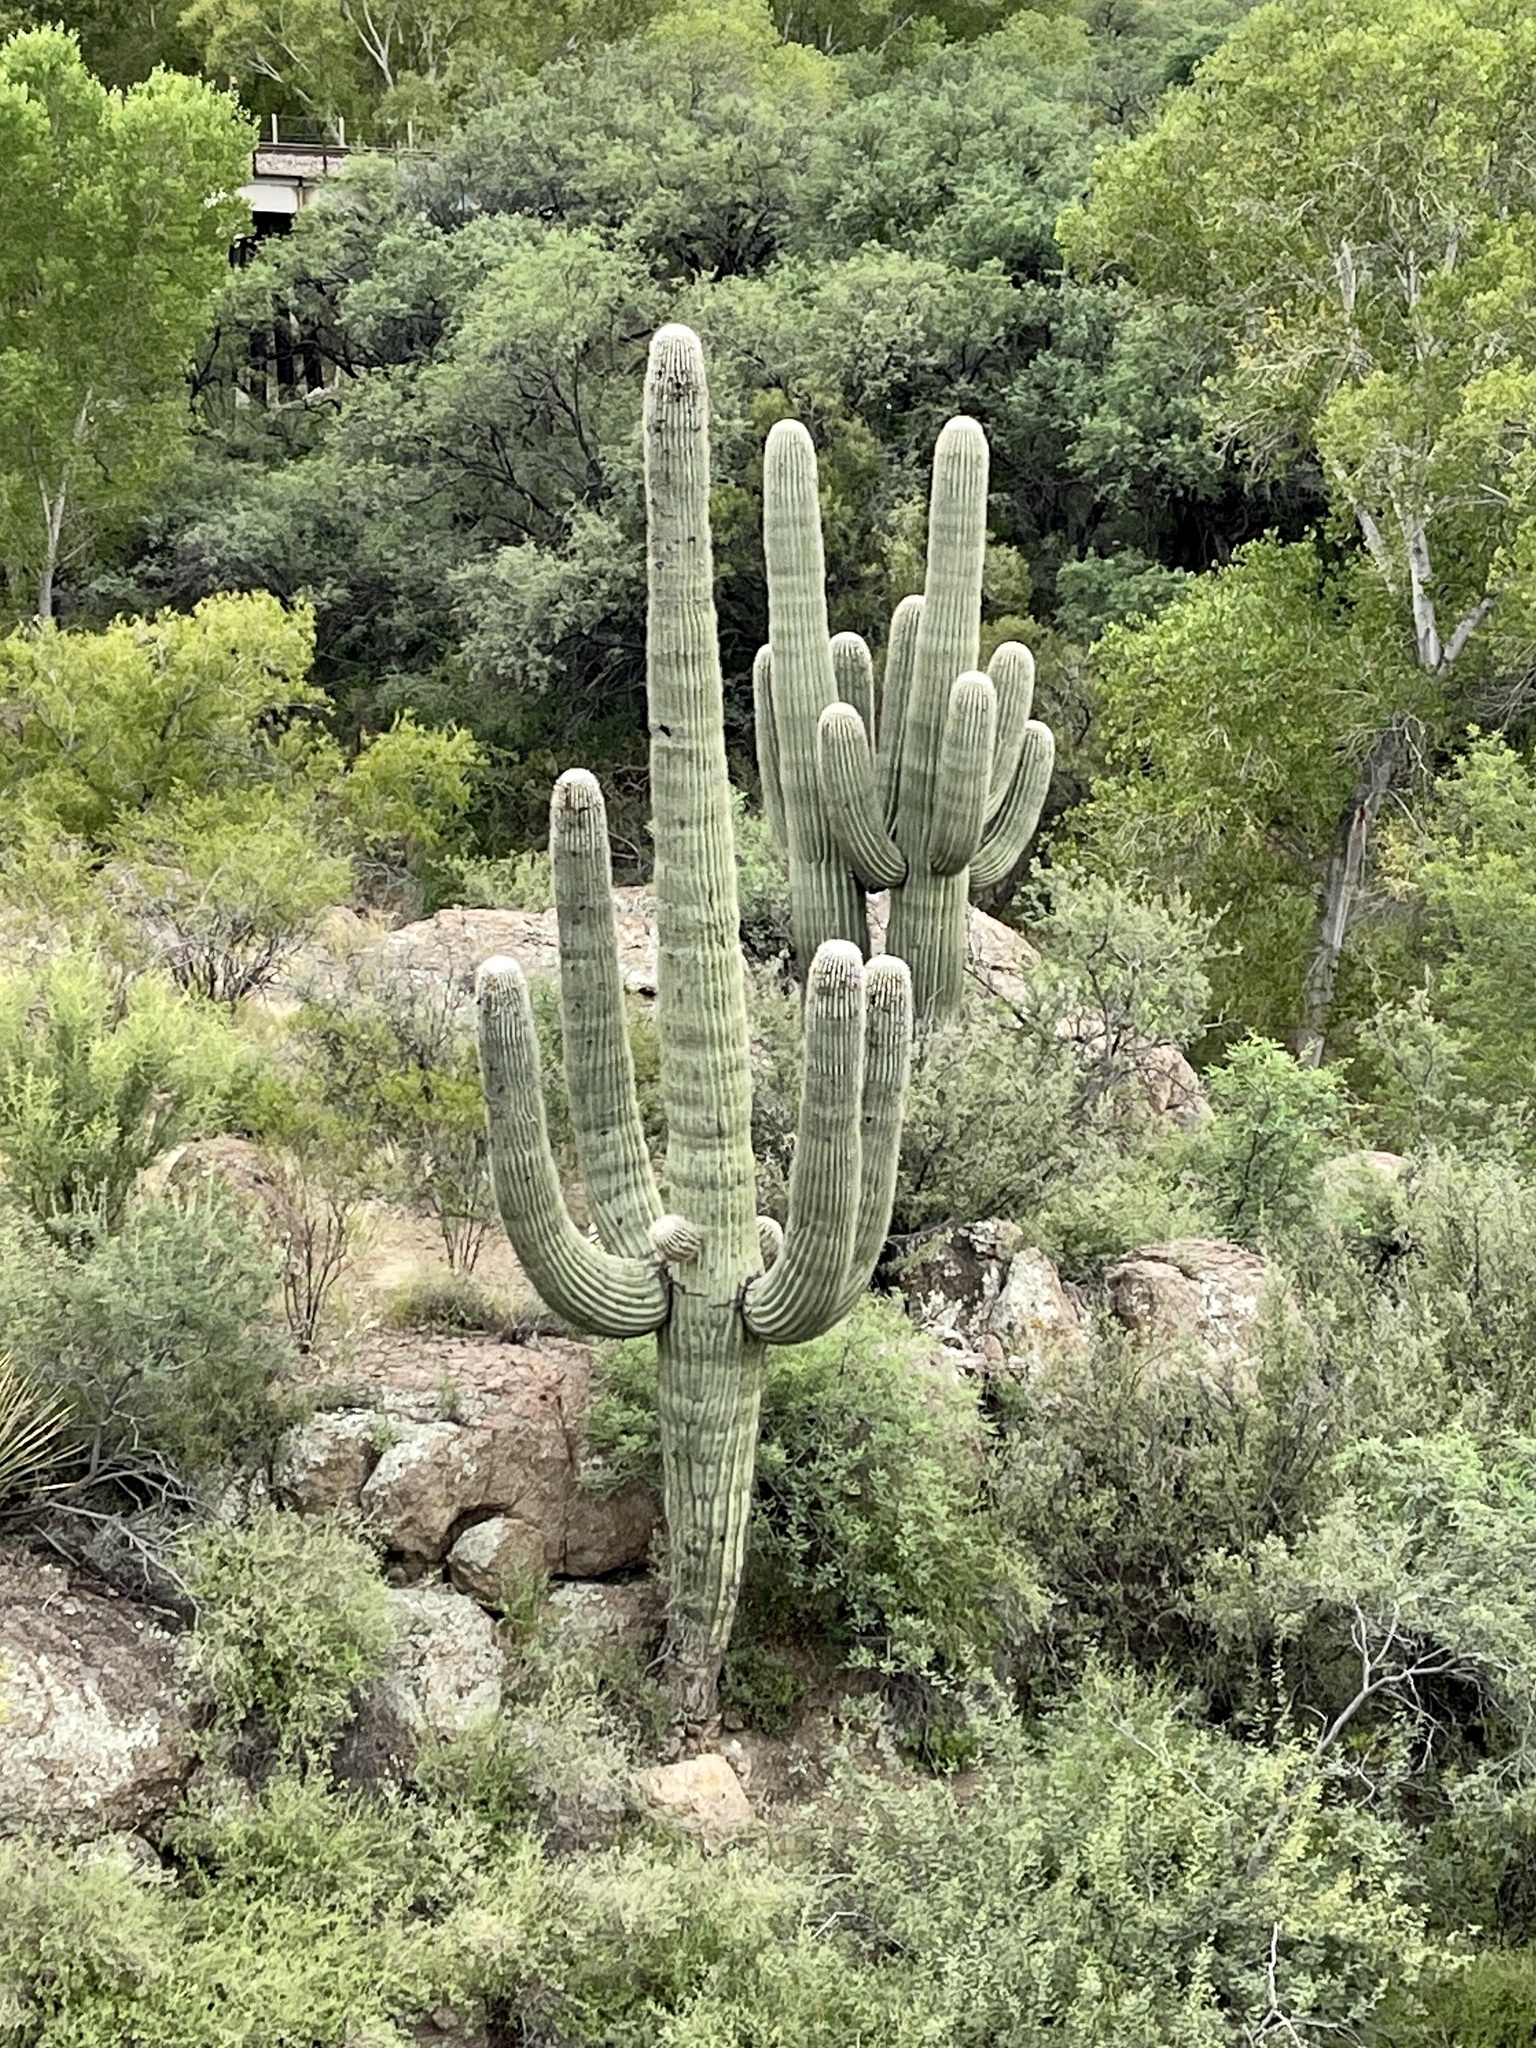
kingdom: Plantae
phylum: Tracheophyta
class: Magnoliopsida
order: Caryophyllales
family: Cactaceae
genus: Carnegiea
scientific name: Carnegiea gigantea
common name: Saguaro
